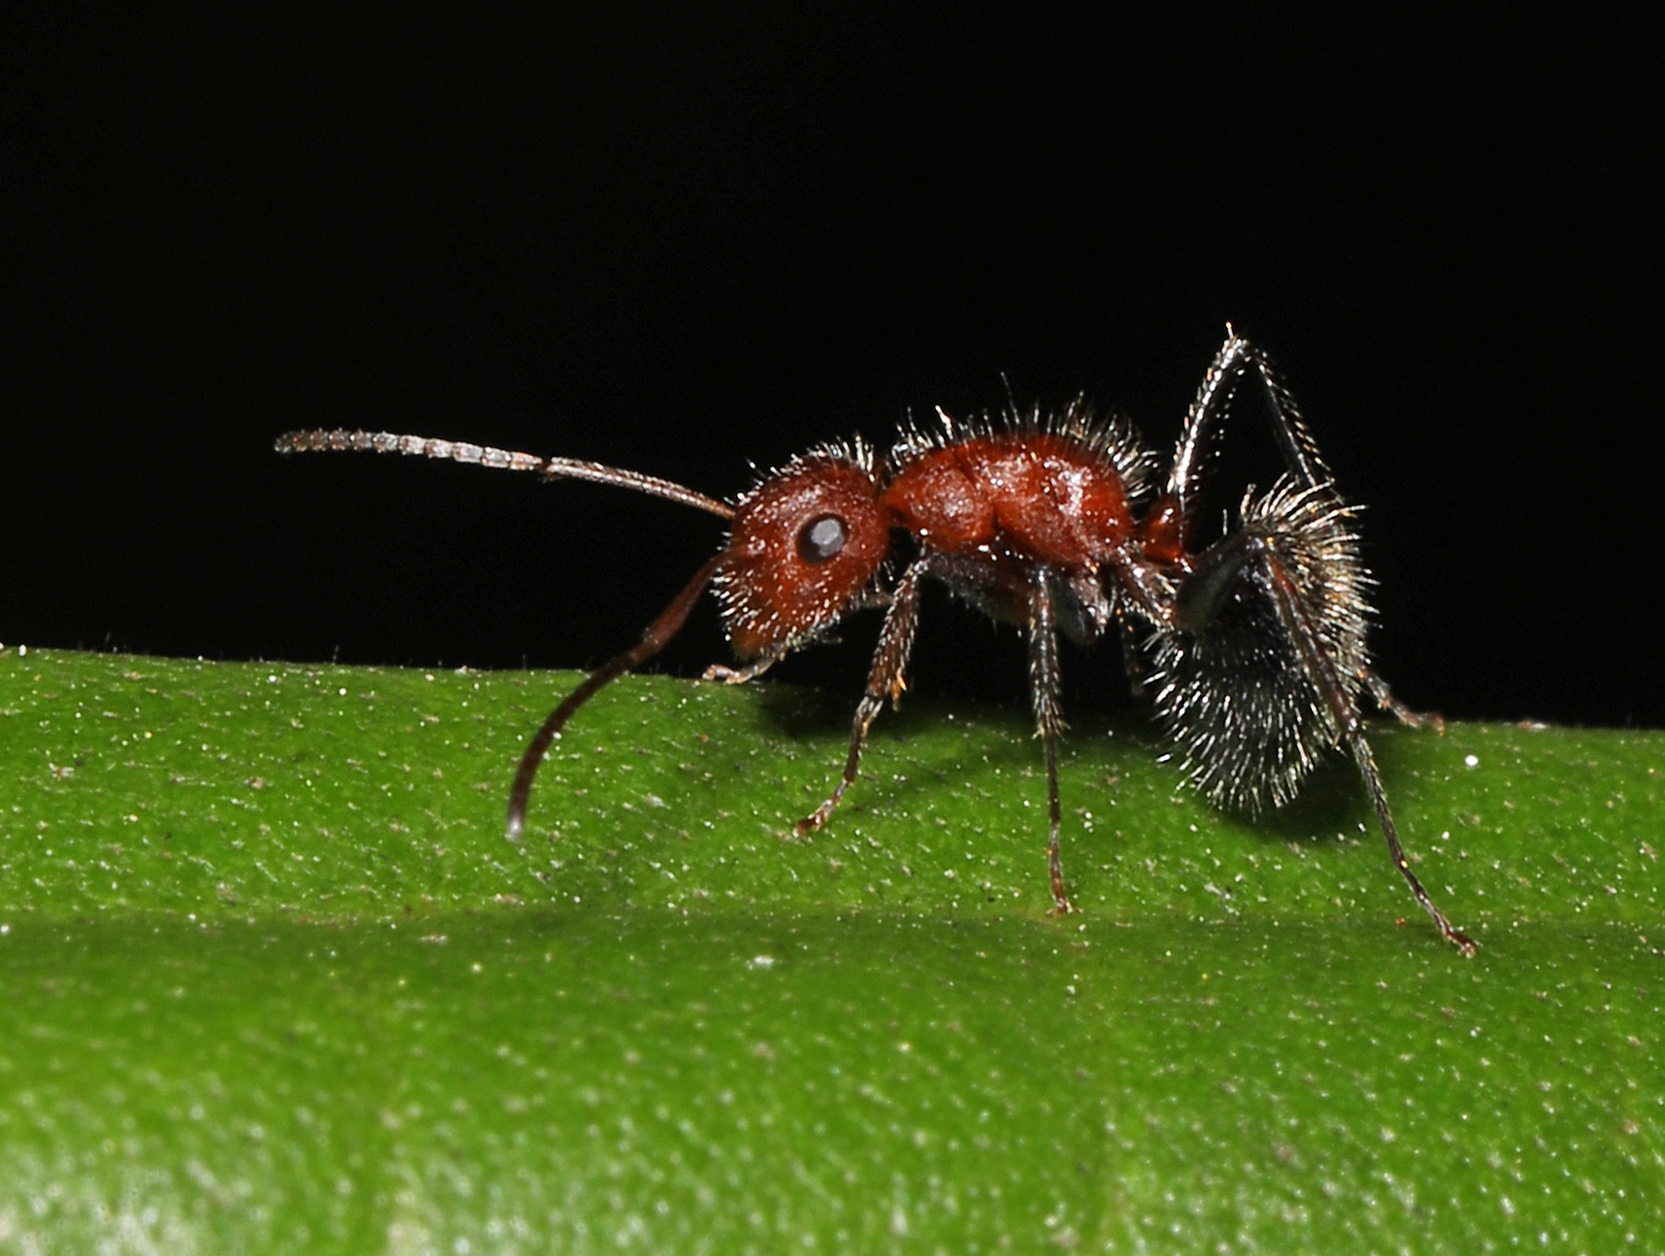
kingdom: Animalia
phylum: Arthropoda
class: Insecta
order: Hymenoptera
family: Formicidae
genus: Camponotus
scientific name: Camponotus planatus
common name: Compact carpenter ant
